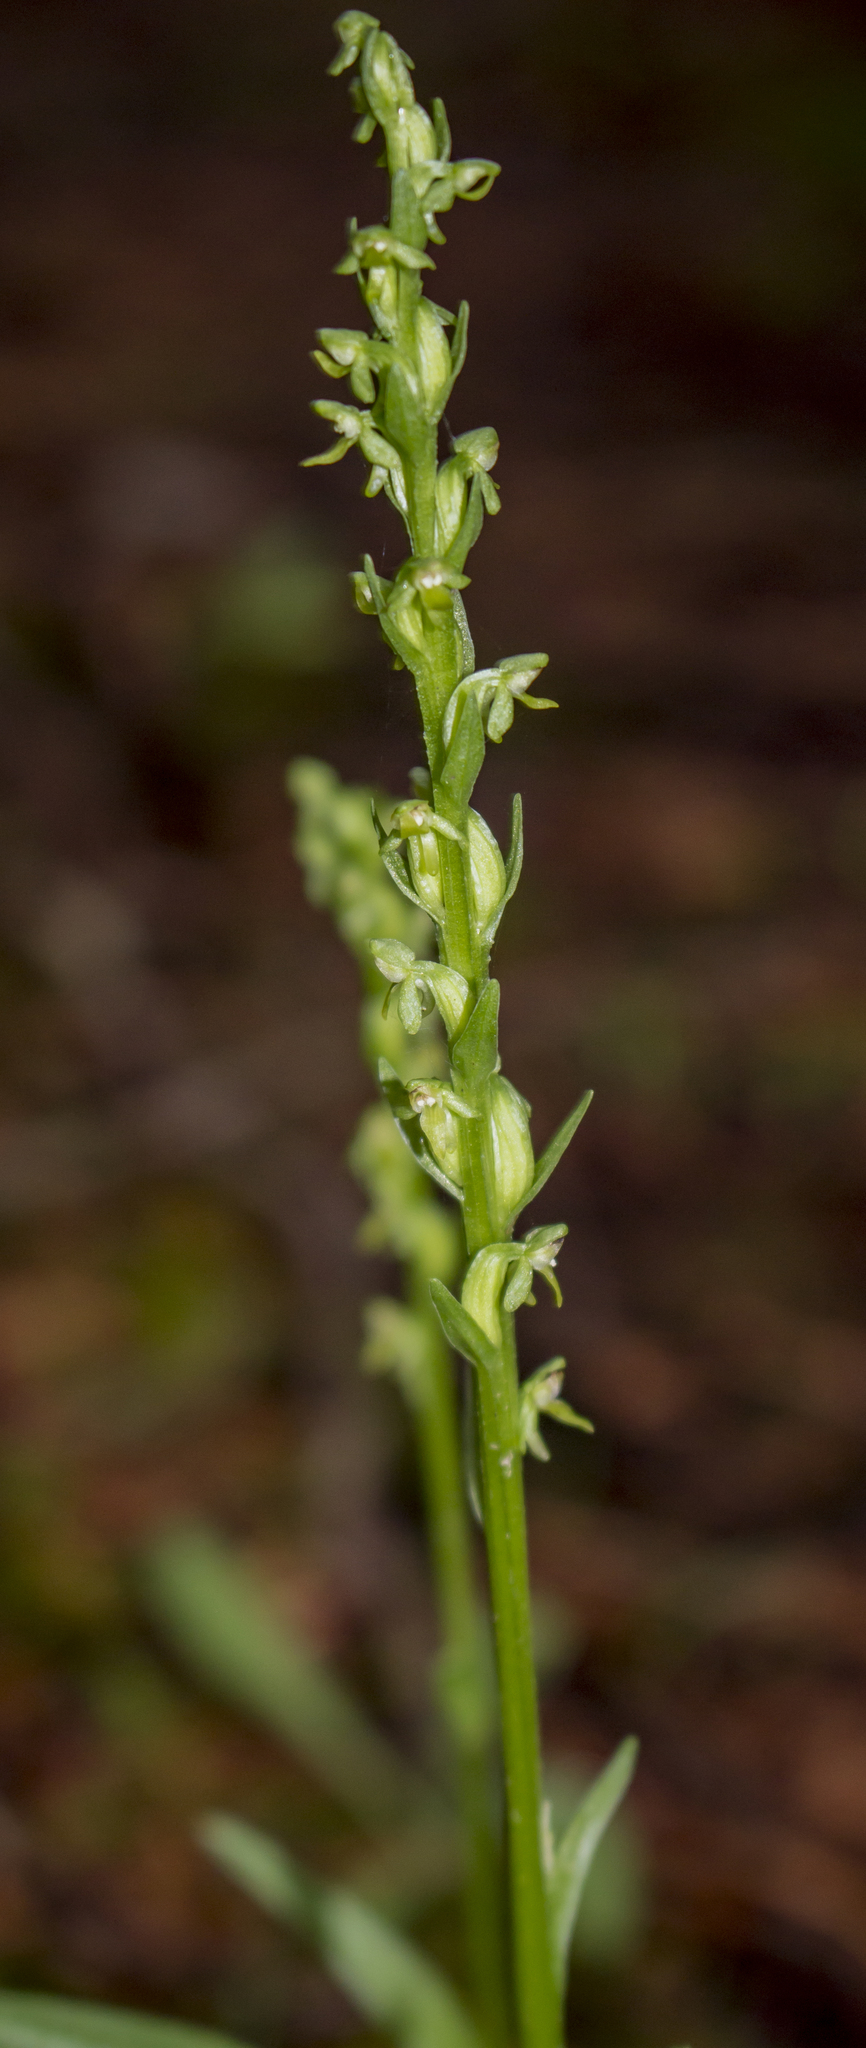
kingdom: Plantae
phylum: Tracheophyta
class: Liliopsida
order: Asparagales
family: Orchidaceae
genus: Platanthera
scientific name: Platanthera aquilonis
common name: Northern green orchid
